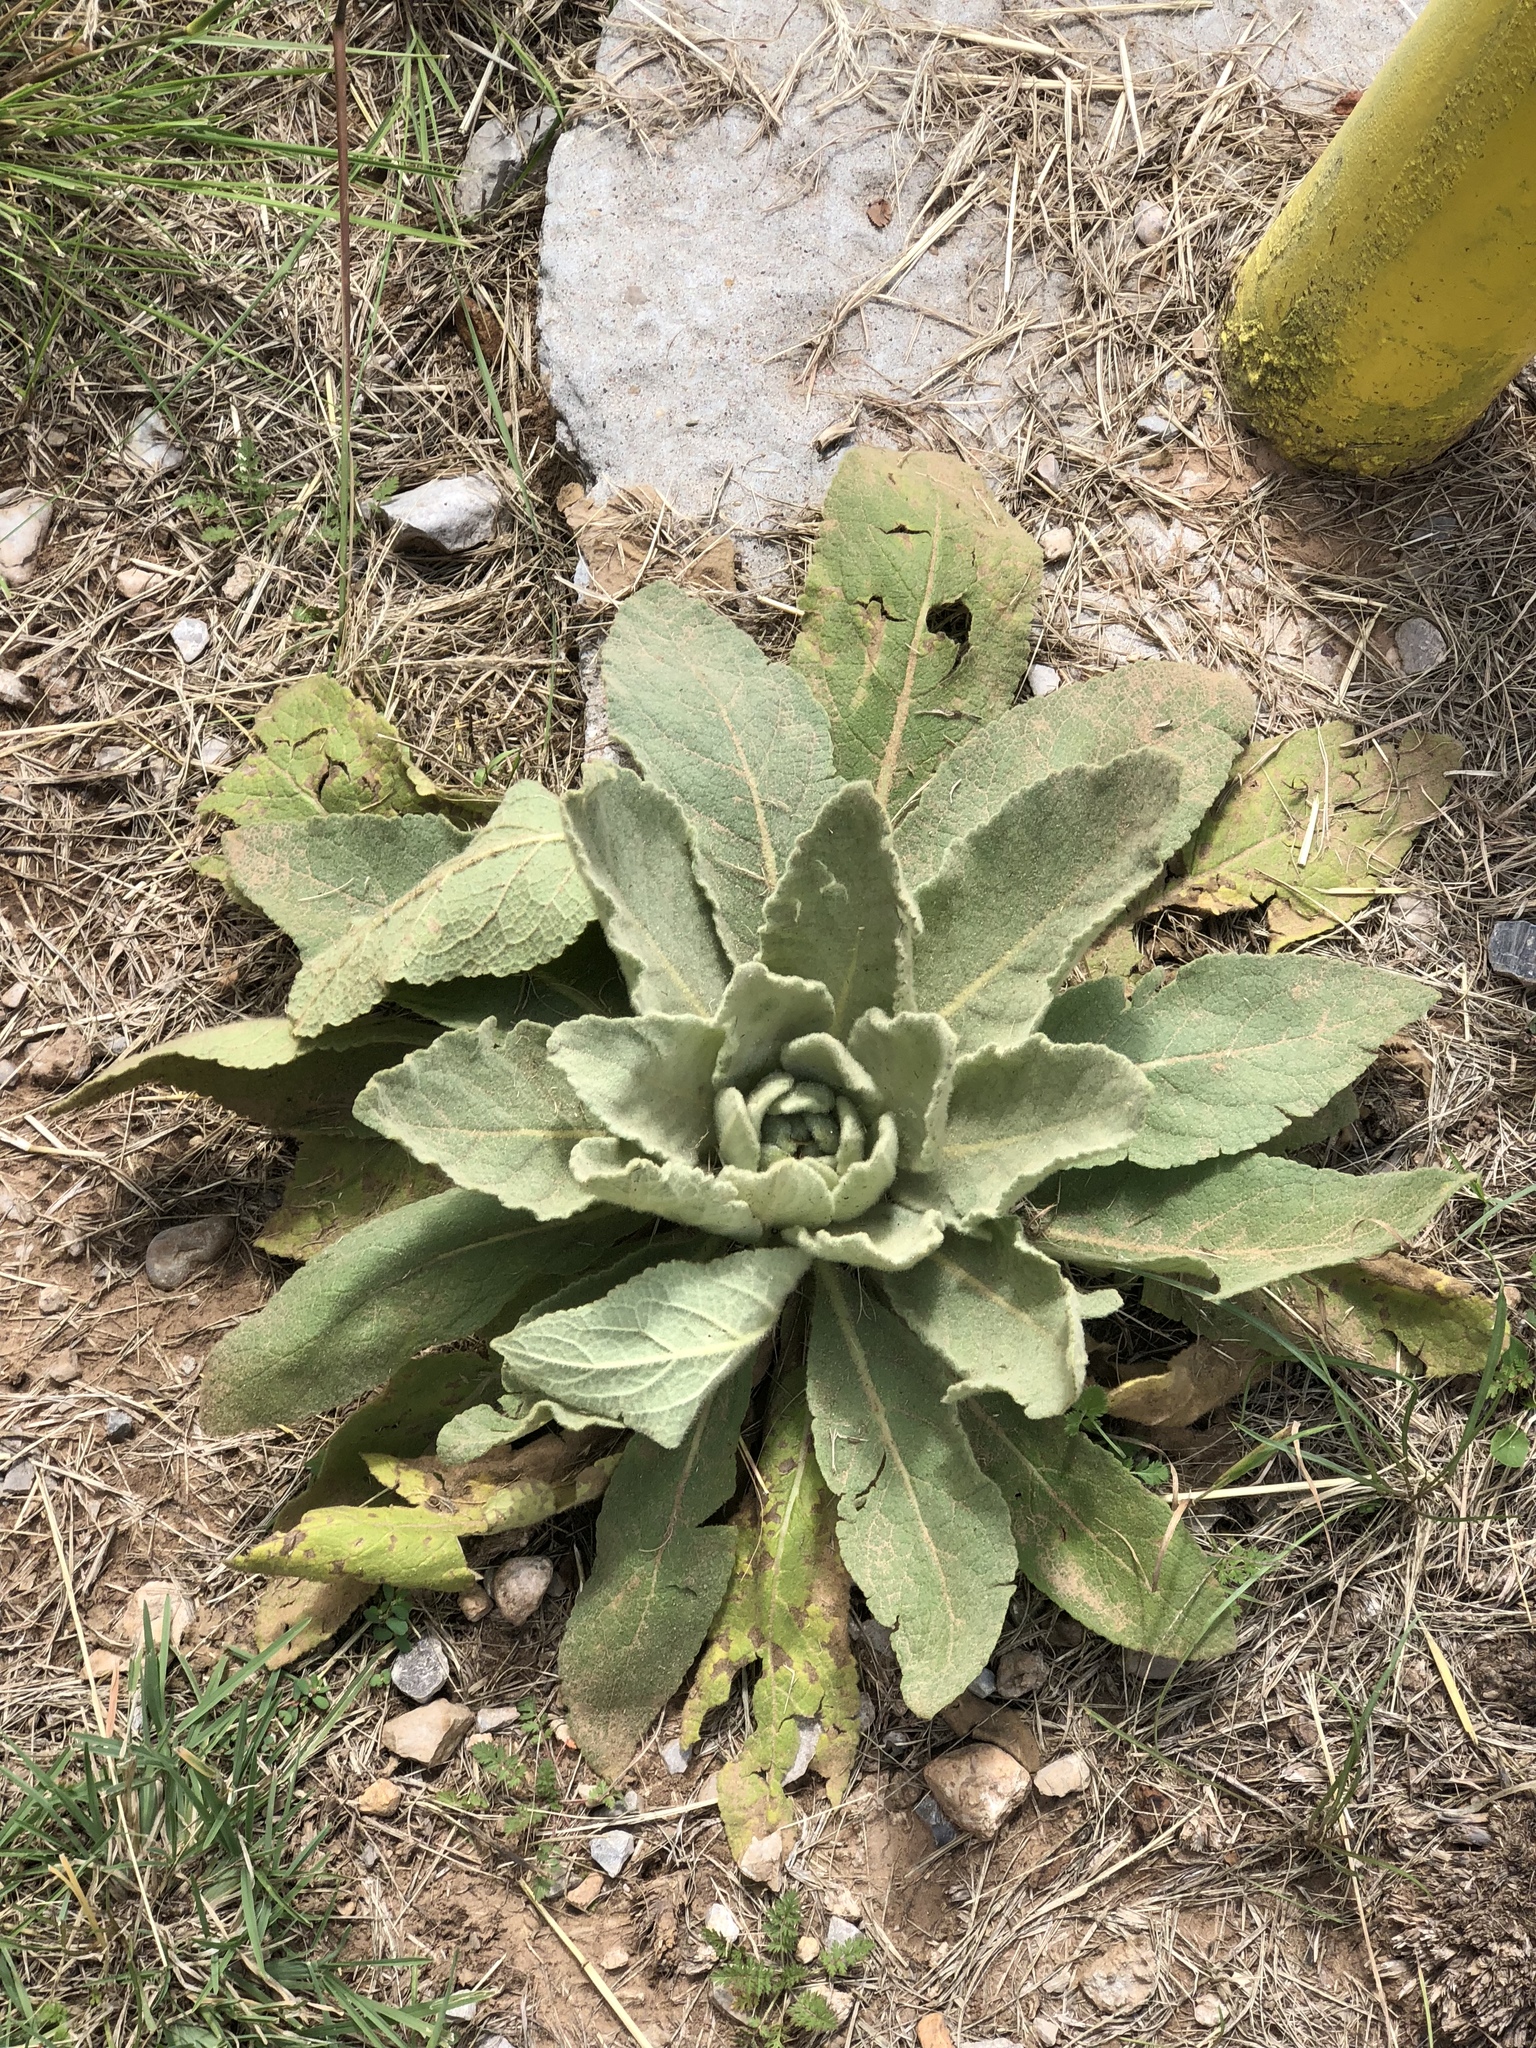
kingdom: Plantae
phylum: Tracheophyta
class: Magnoliopsida
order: Lamiales
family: Scrophulariaceae
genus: Verbascum
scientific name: Verbascum thapsus
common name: Common mullein
